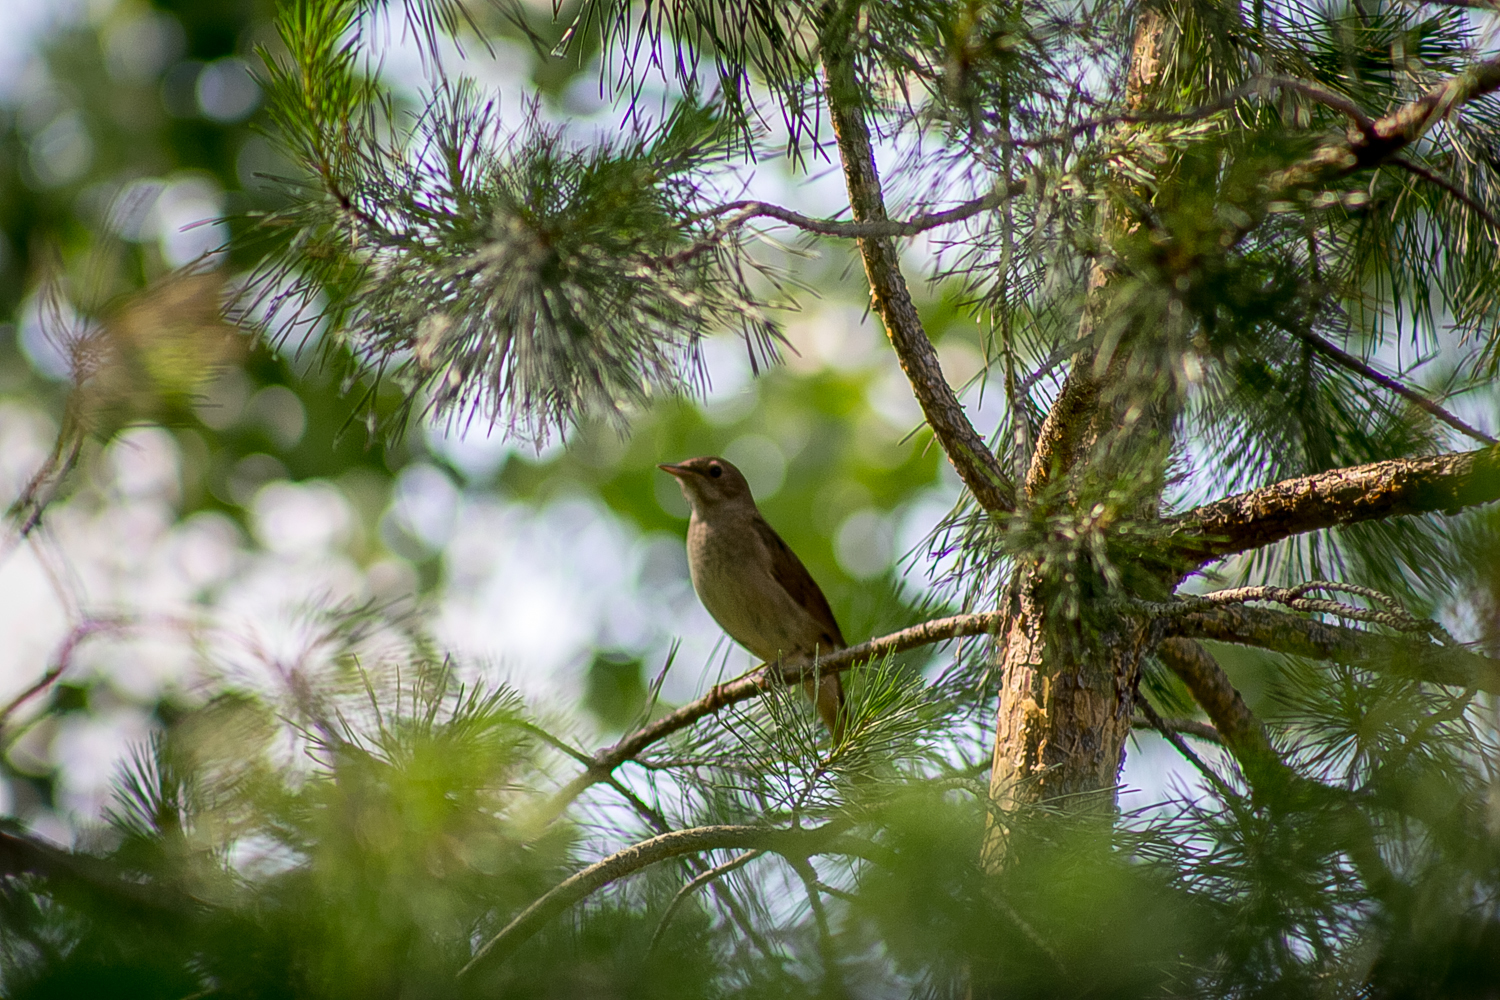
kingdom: Animalia
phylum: Chordata
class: Aves
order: Passeriformes
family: Muscicapidae
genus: Luscinia
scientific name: Luscinia luscinia
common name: Thrush nightingale
